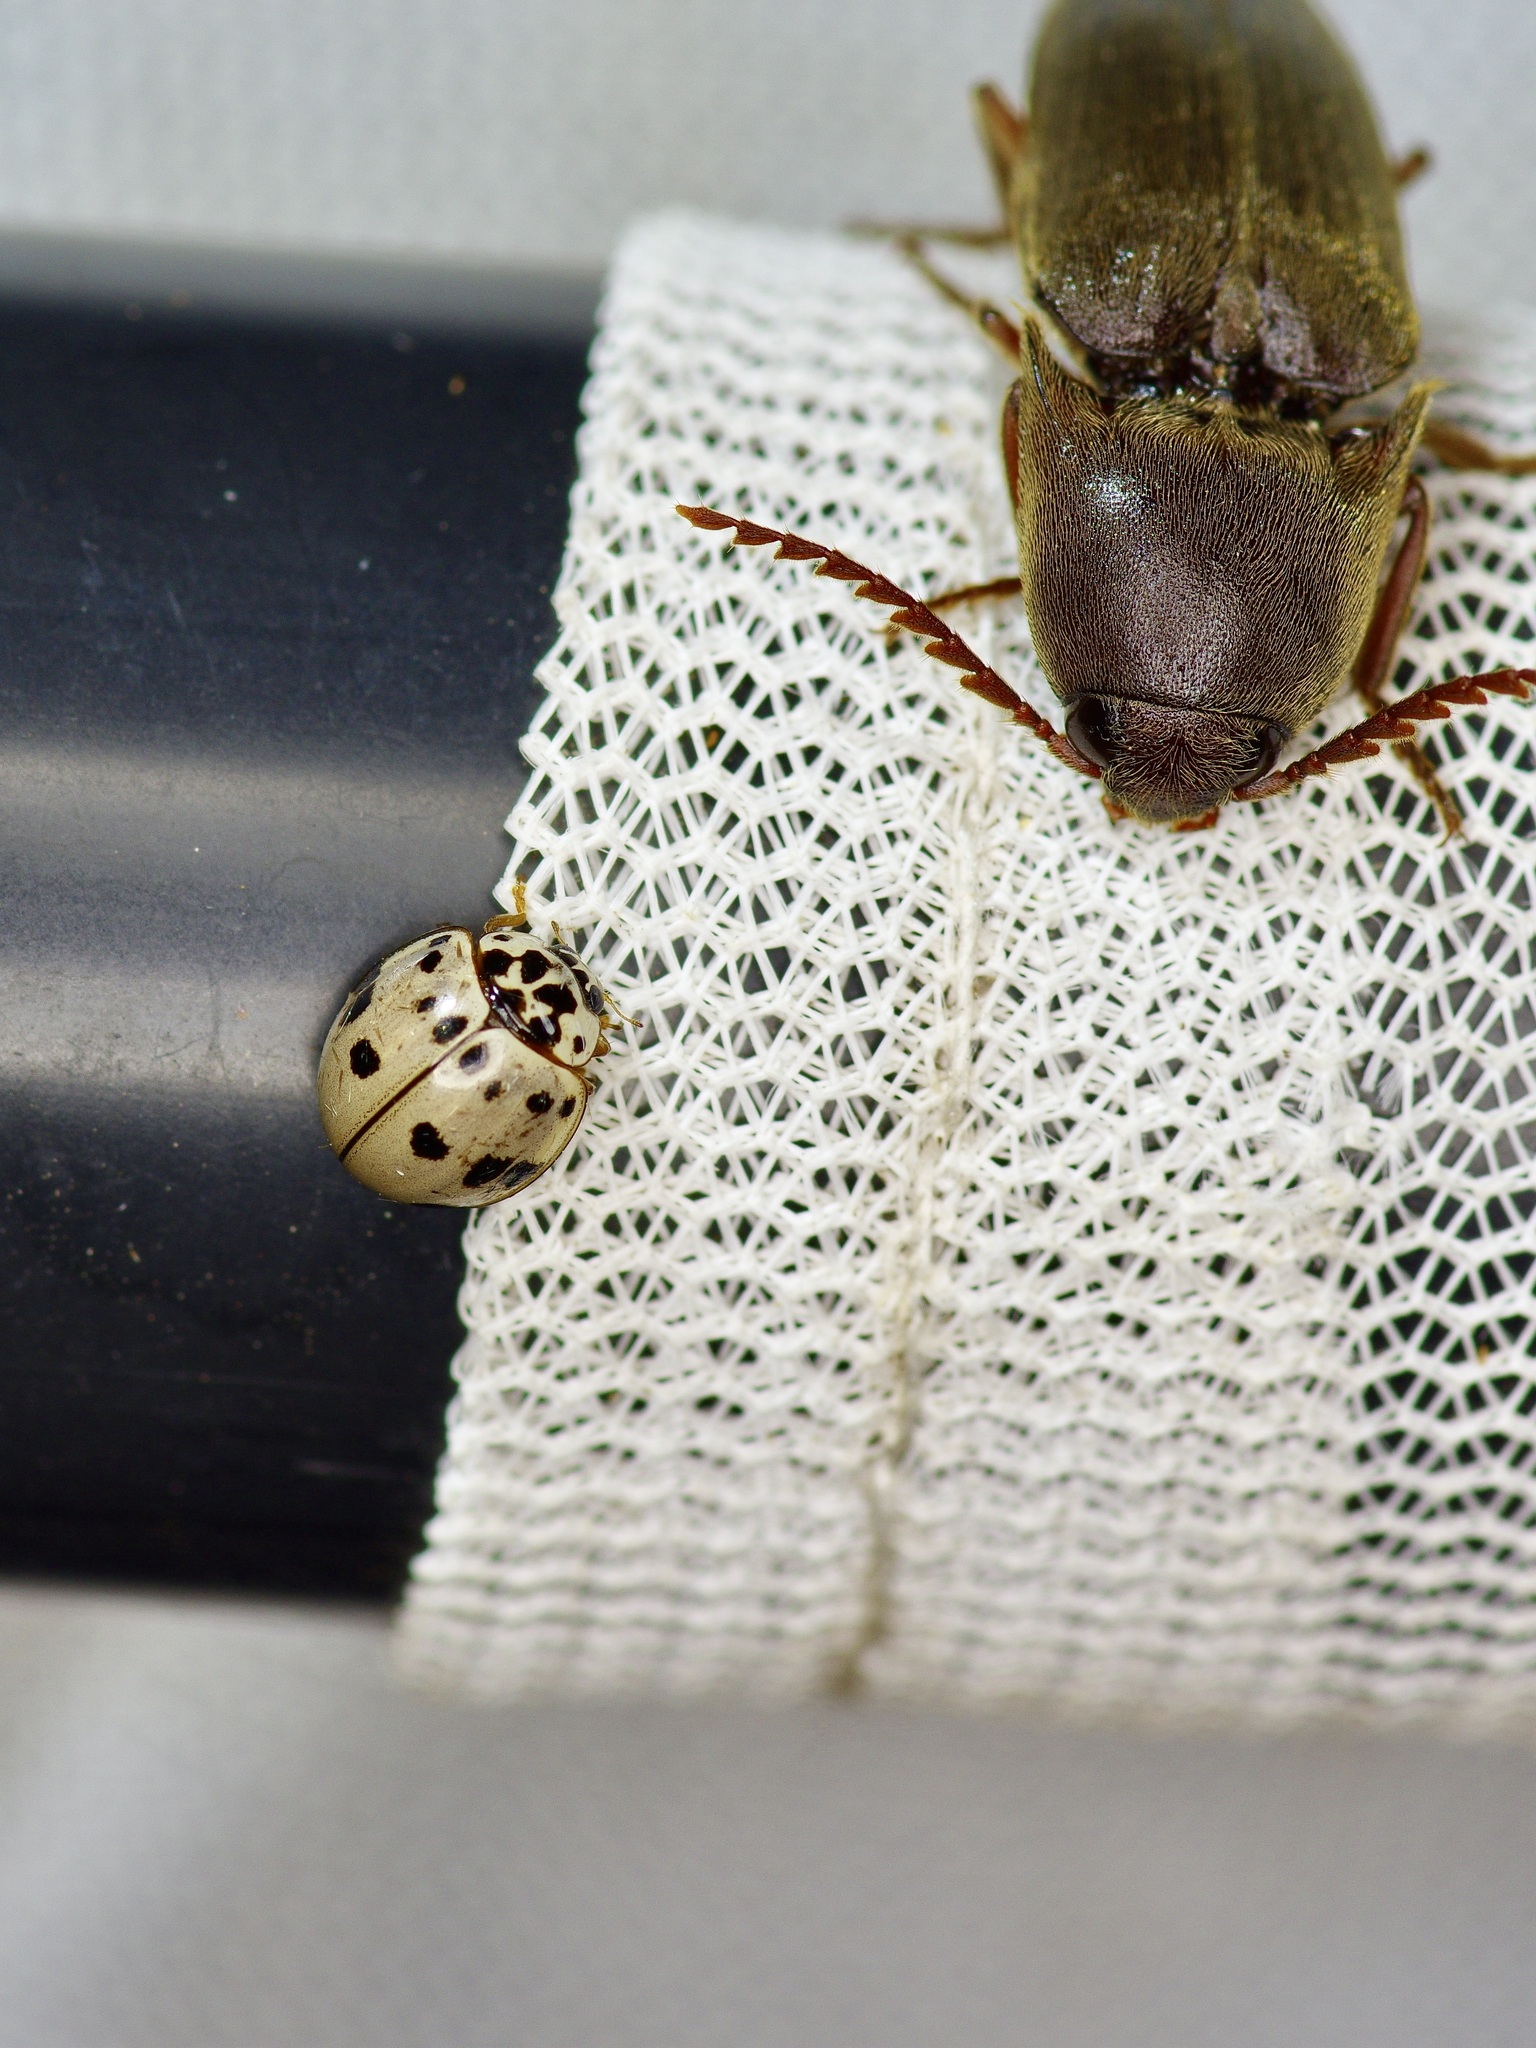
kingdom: Animalia
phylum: Arthropoda
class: Insecta
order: Coleoptera
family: Coccinellidae
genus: Olla
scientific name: Olla v-nigrum
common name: Ashy gray lady beetle
